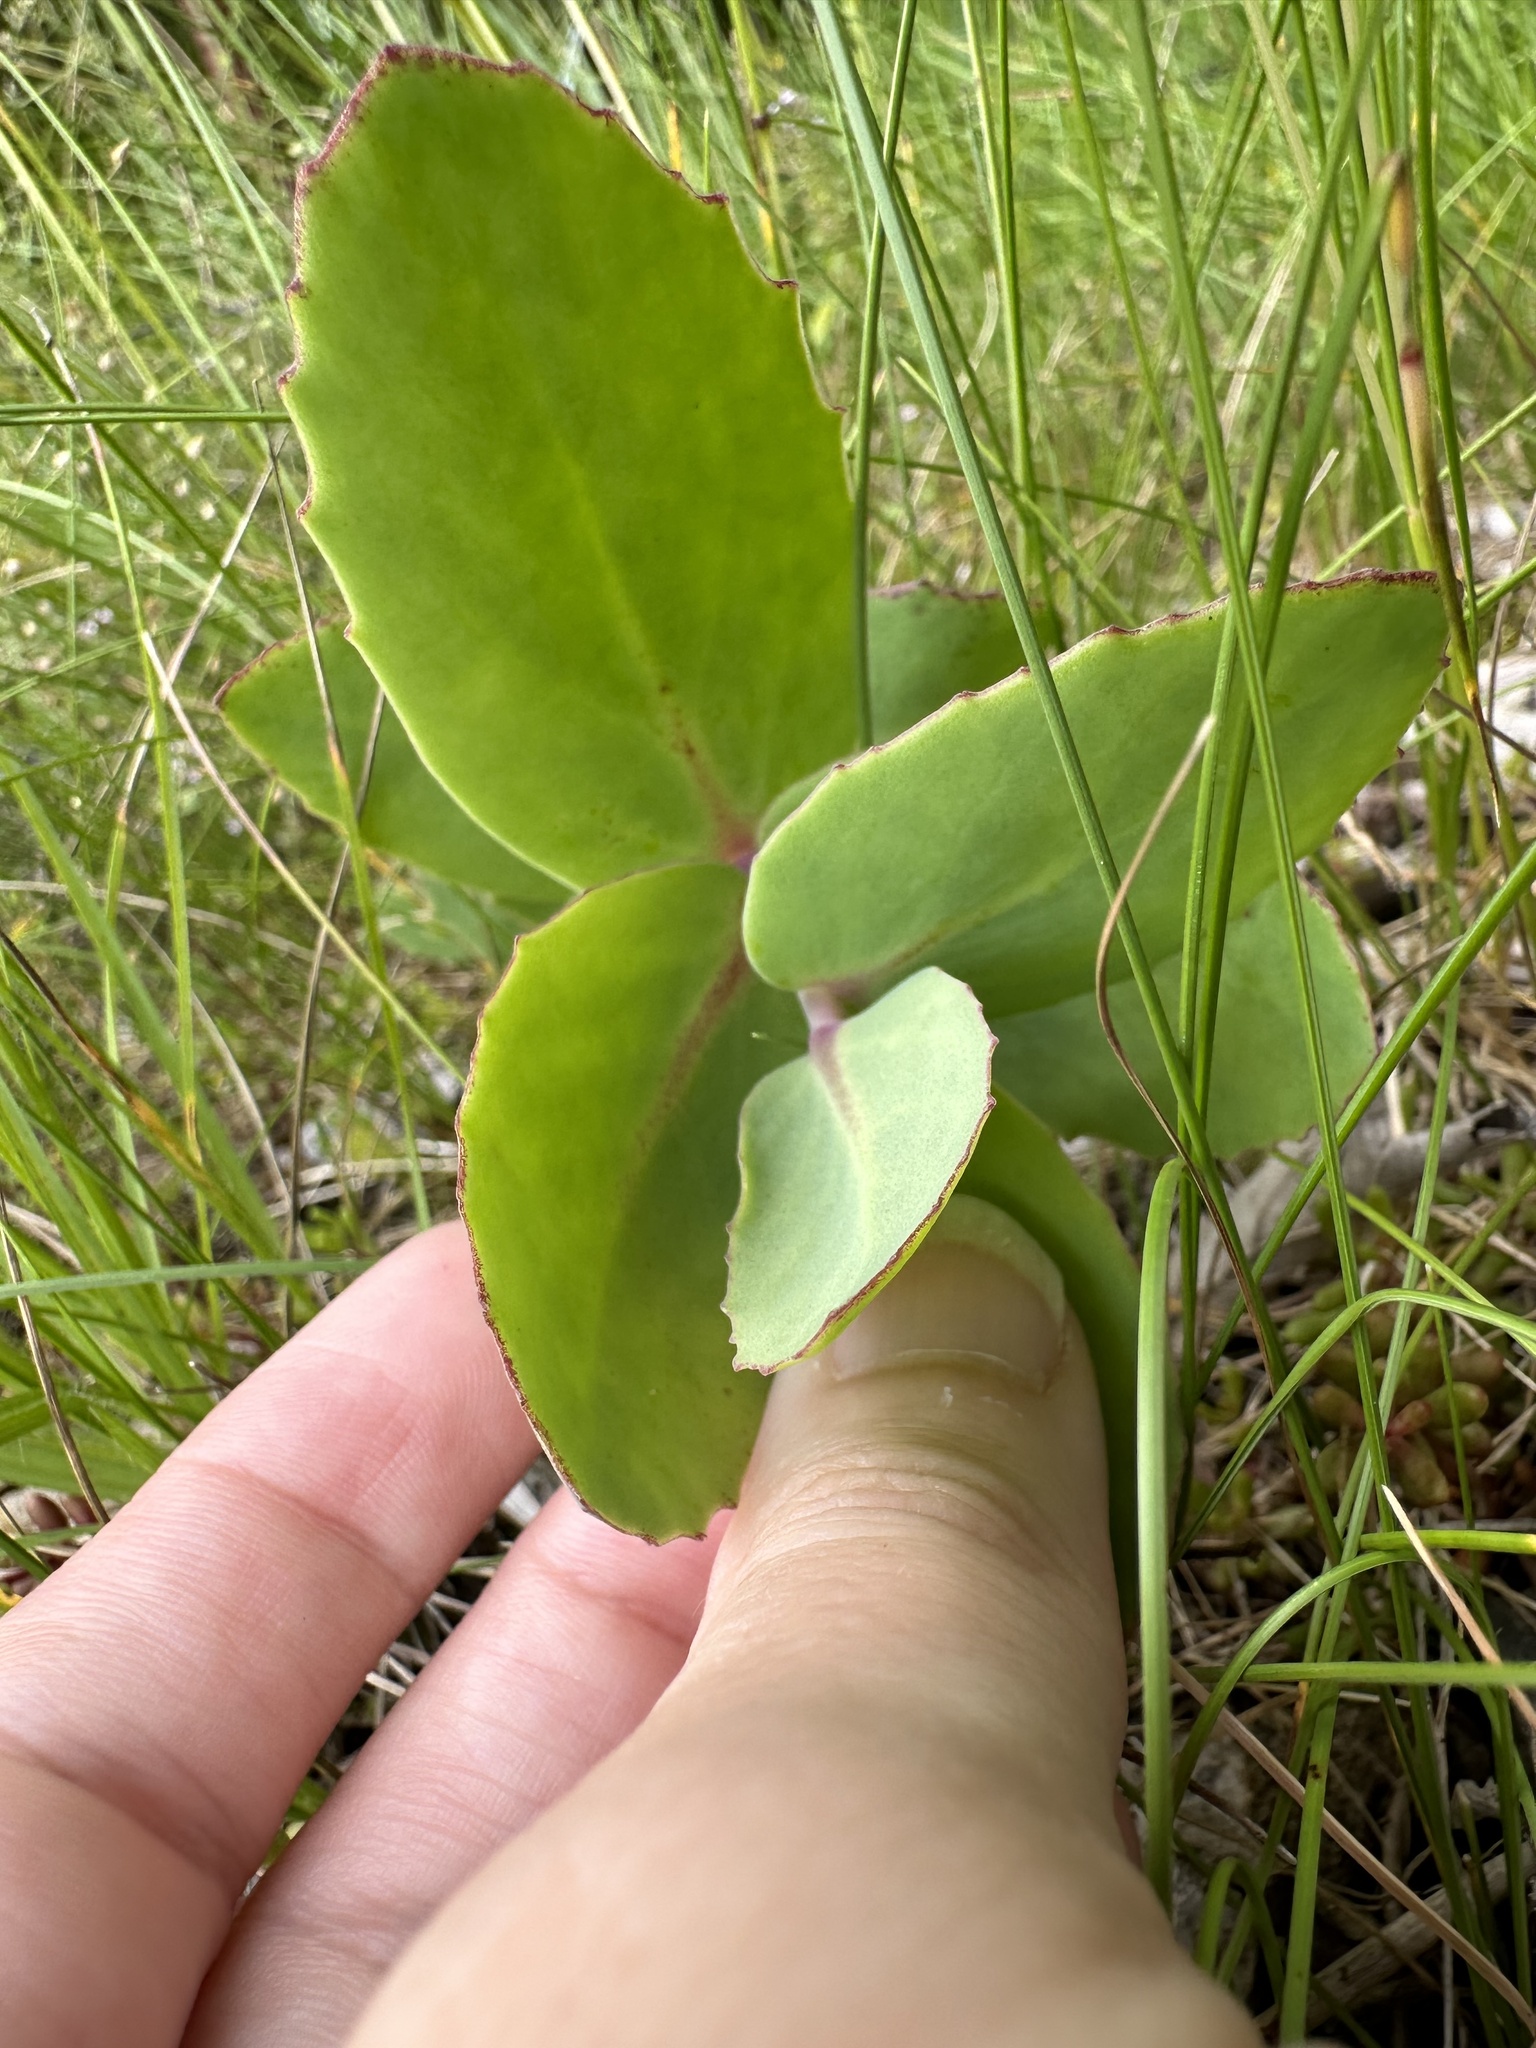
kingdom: Plantae
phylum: Tracheophyta
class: Magnoliopsida
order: Saxifragales
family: Crassulaceae
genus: Hylotelephium
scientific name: Hylotelephium maximum
